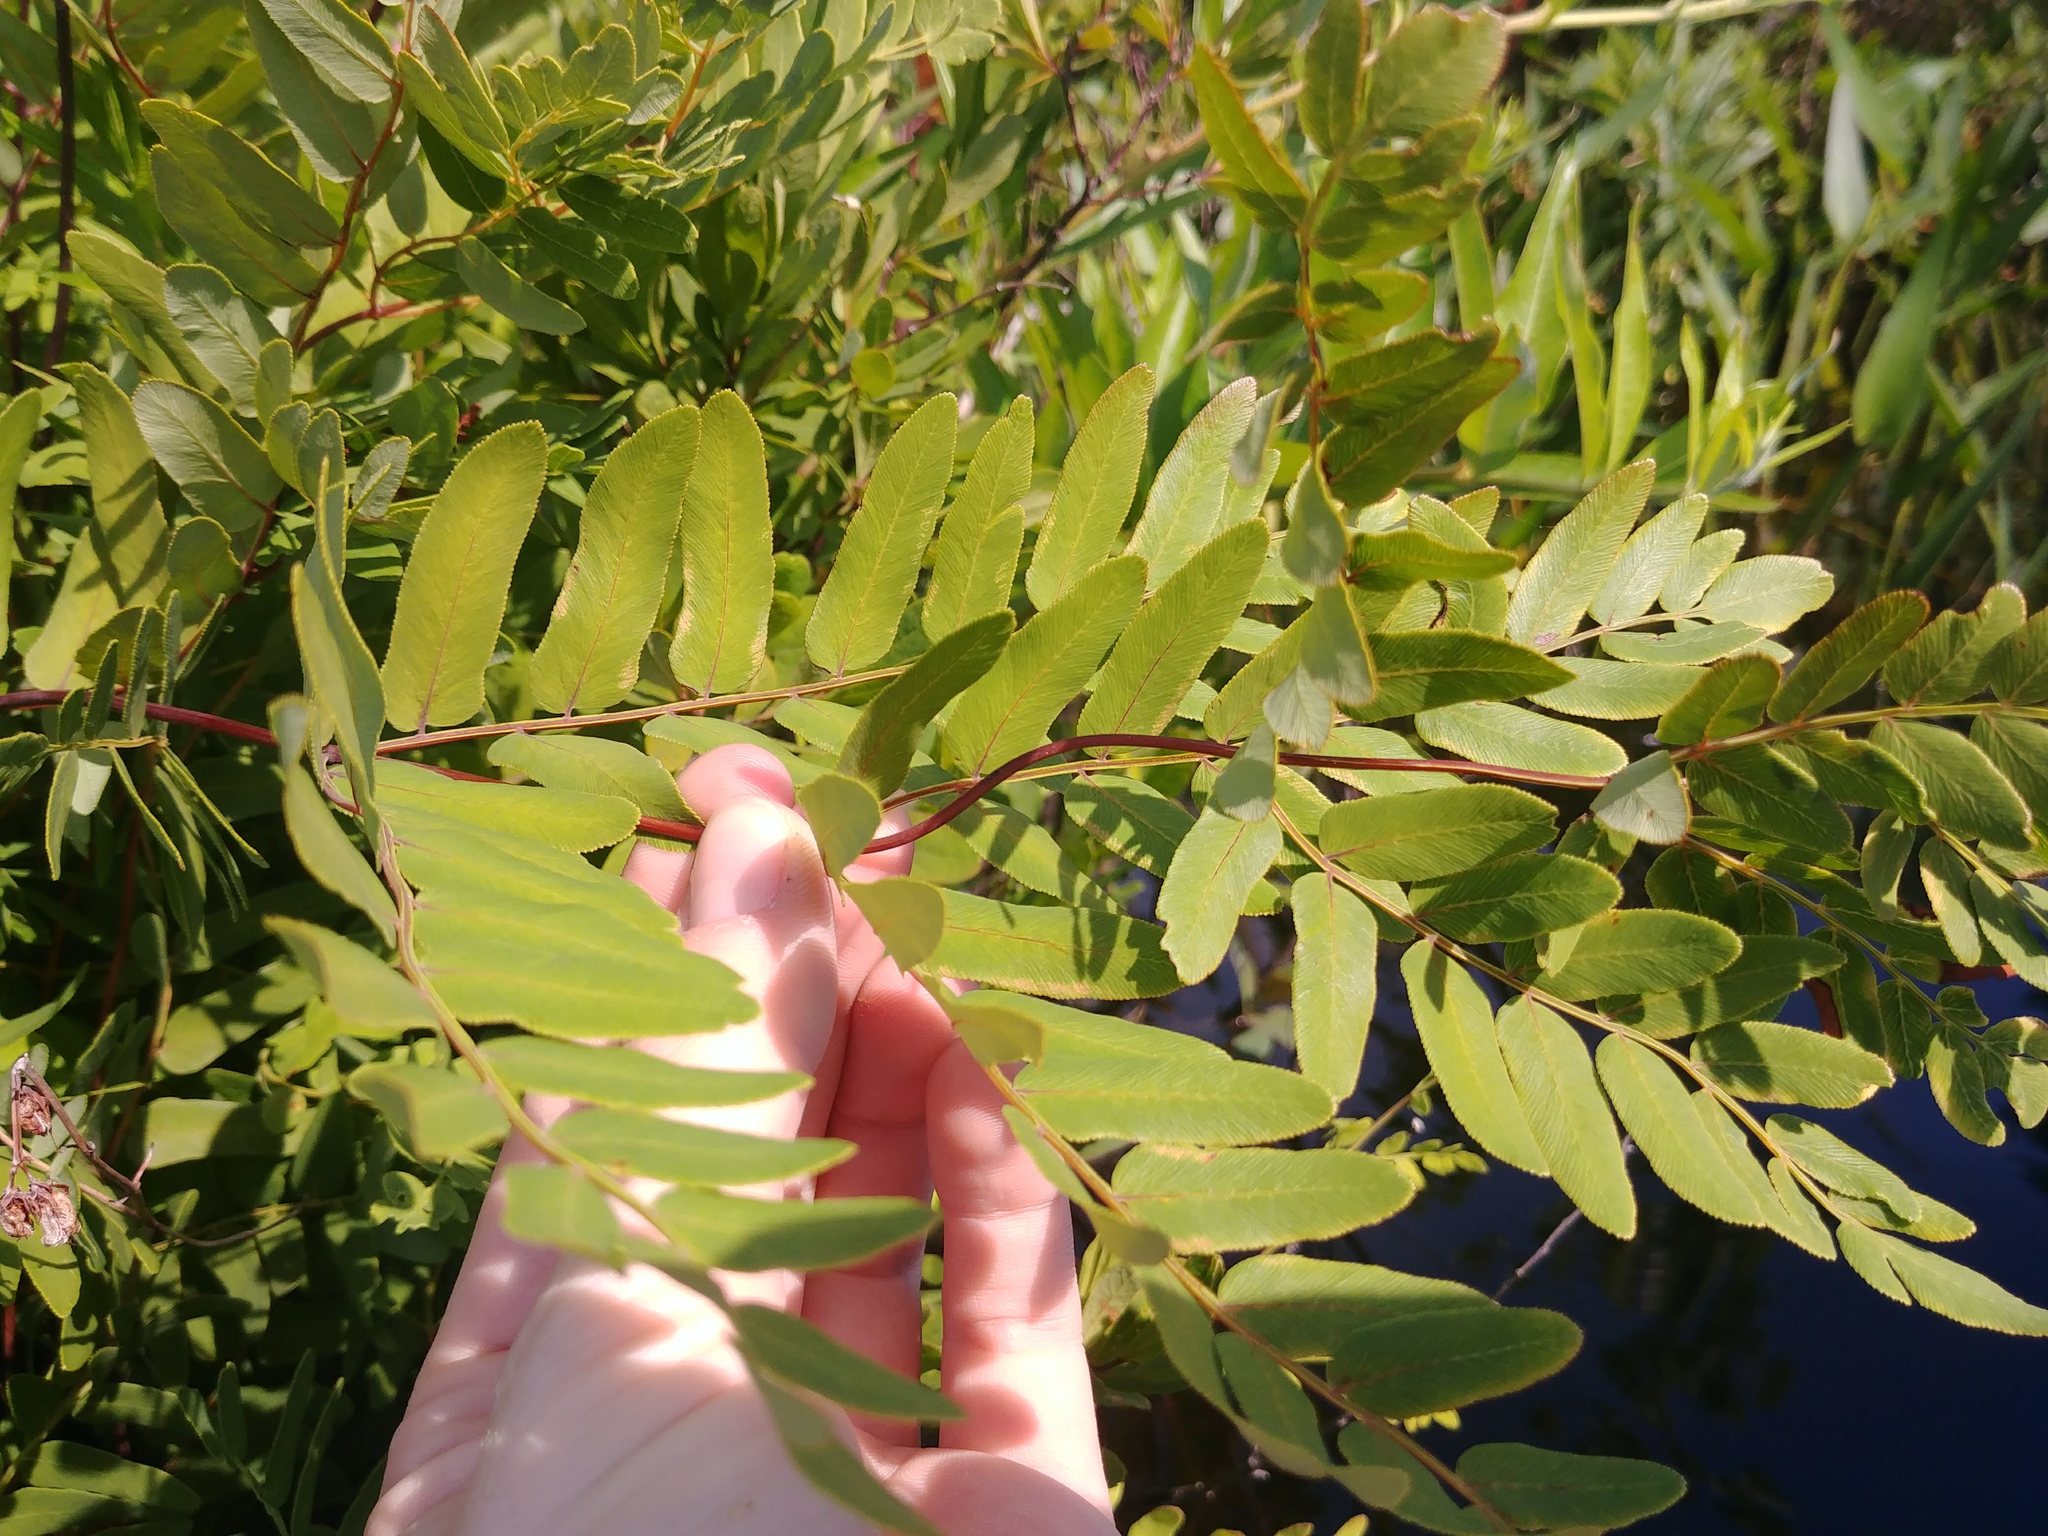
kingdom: Plantae
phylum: Tracheophyta
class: Polypodiopsida
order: Osmundales
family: Osmundaceae
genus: Osmunda
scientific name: Osmunda spectabilis
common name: American royal fern
